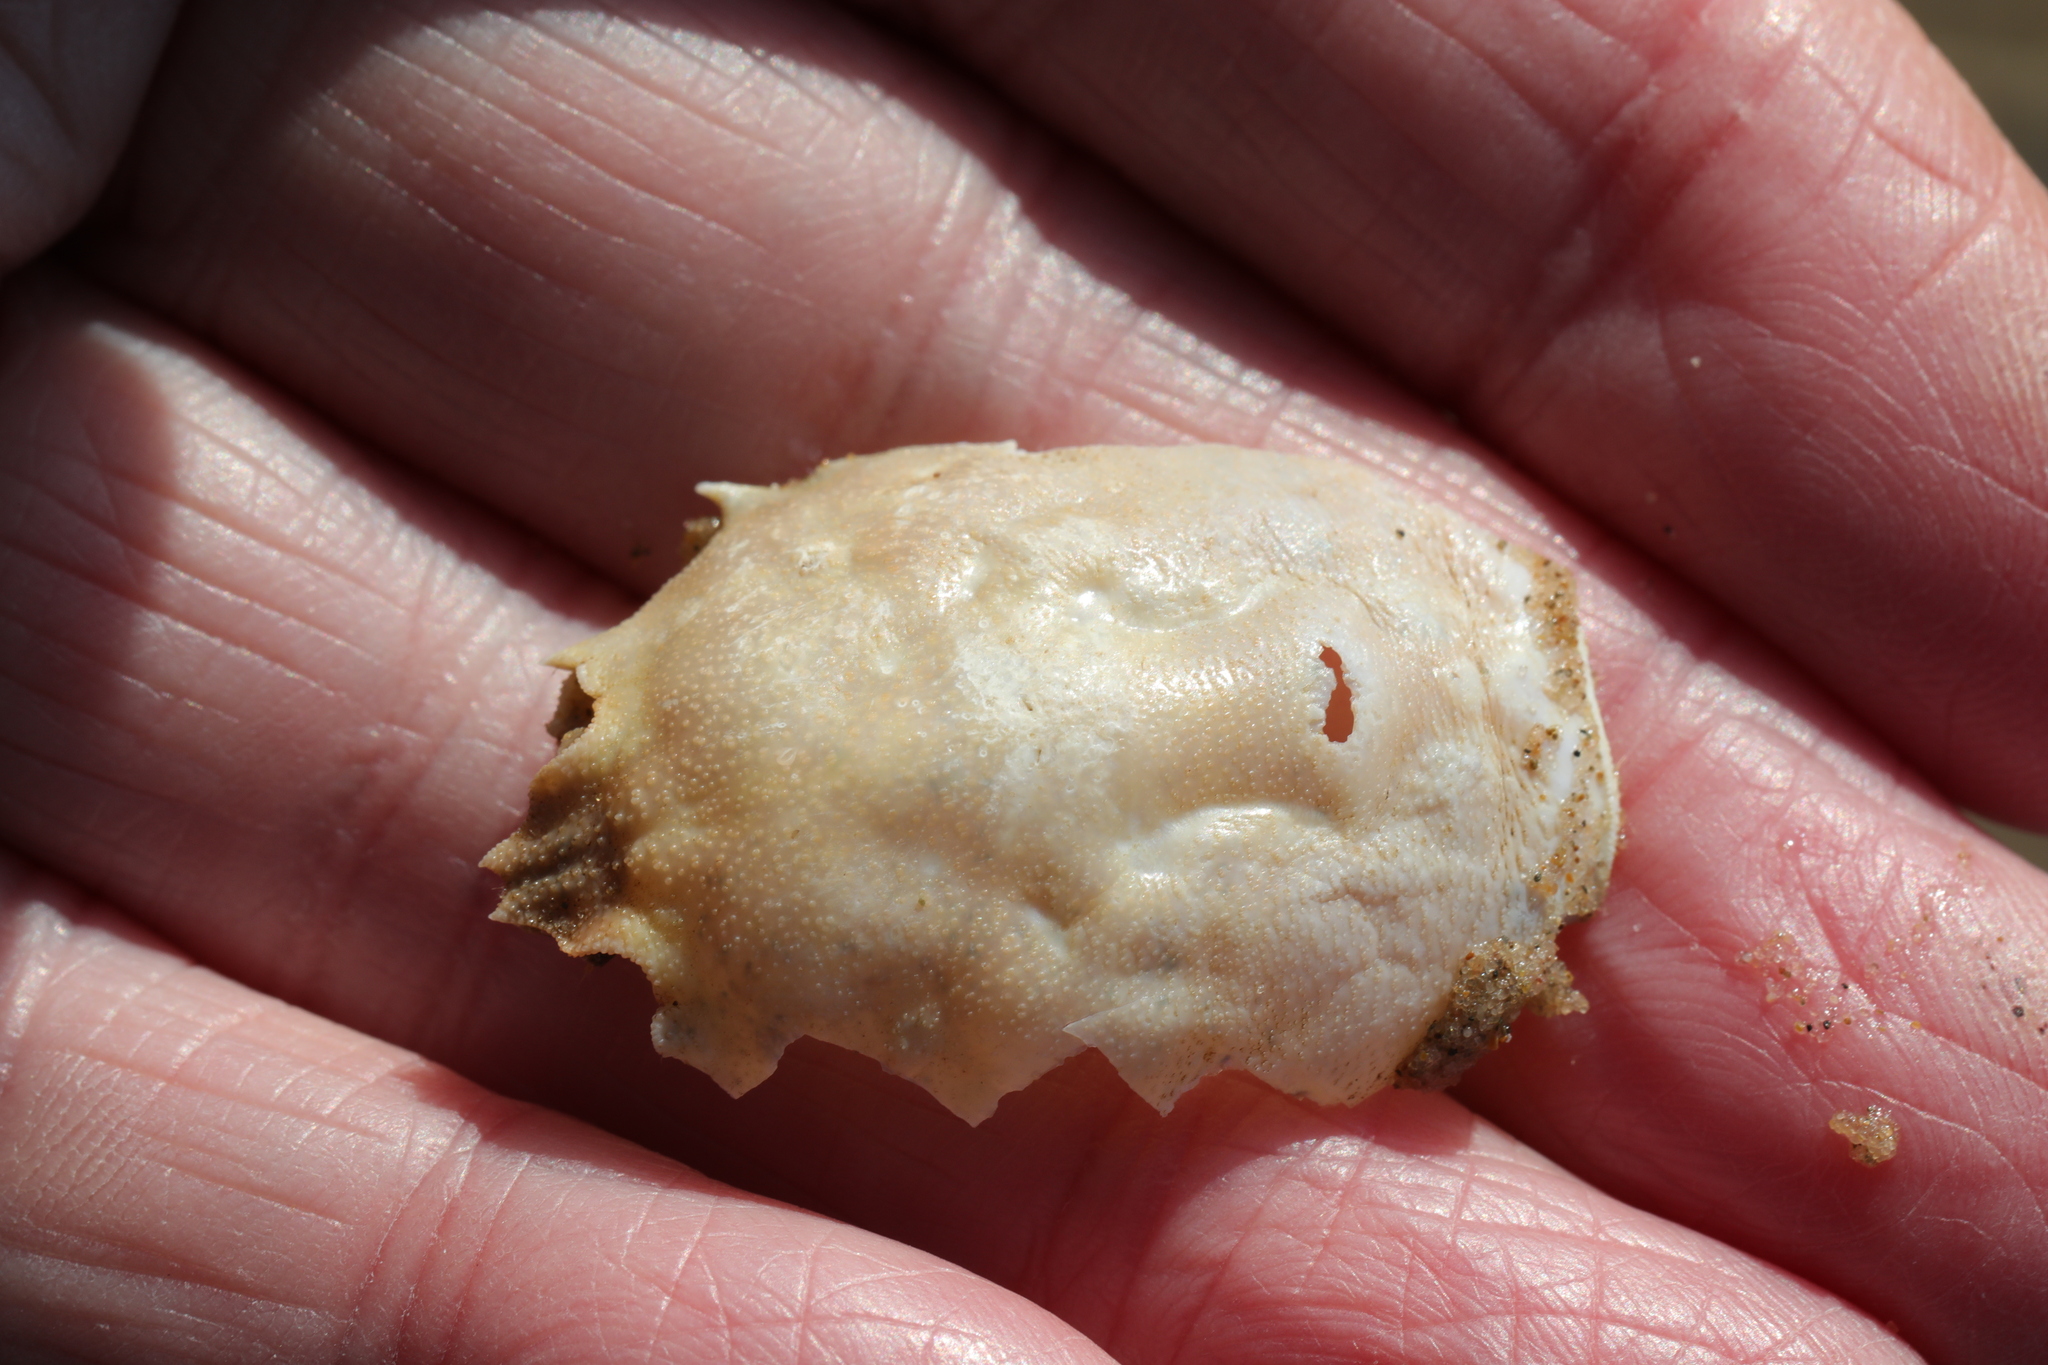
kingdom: Animalia
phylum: Arthropoda
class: Malacostraca
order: Decapoda
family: Corystidae
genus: Corystes
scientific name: Corystes cassivelaunus
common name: Masked crab
